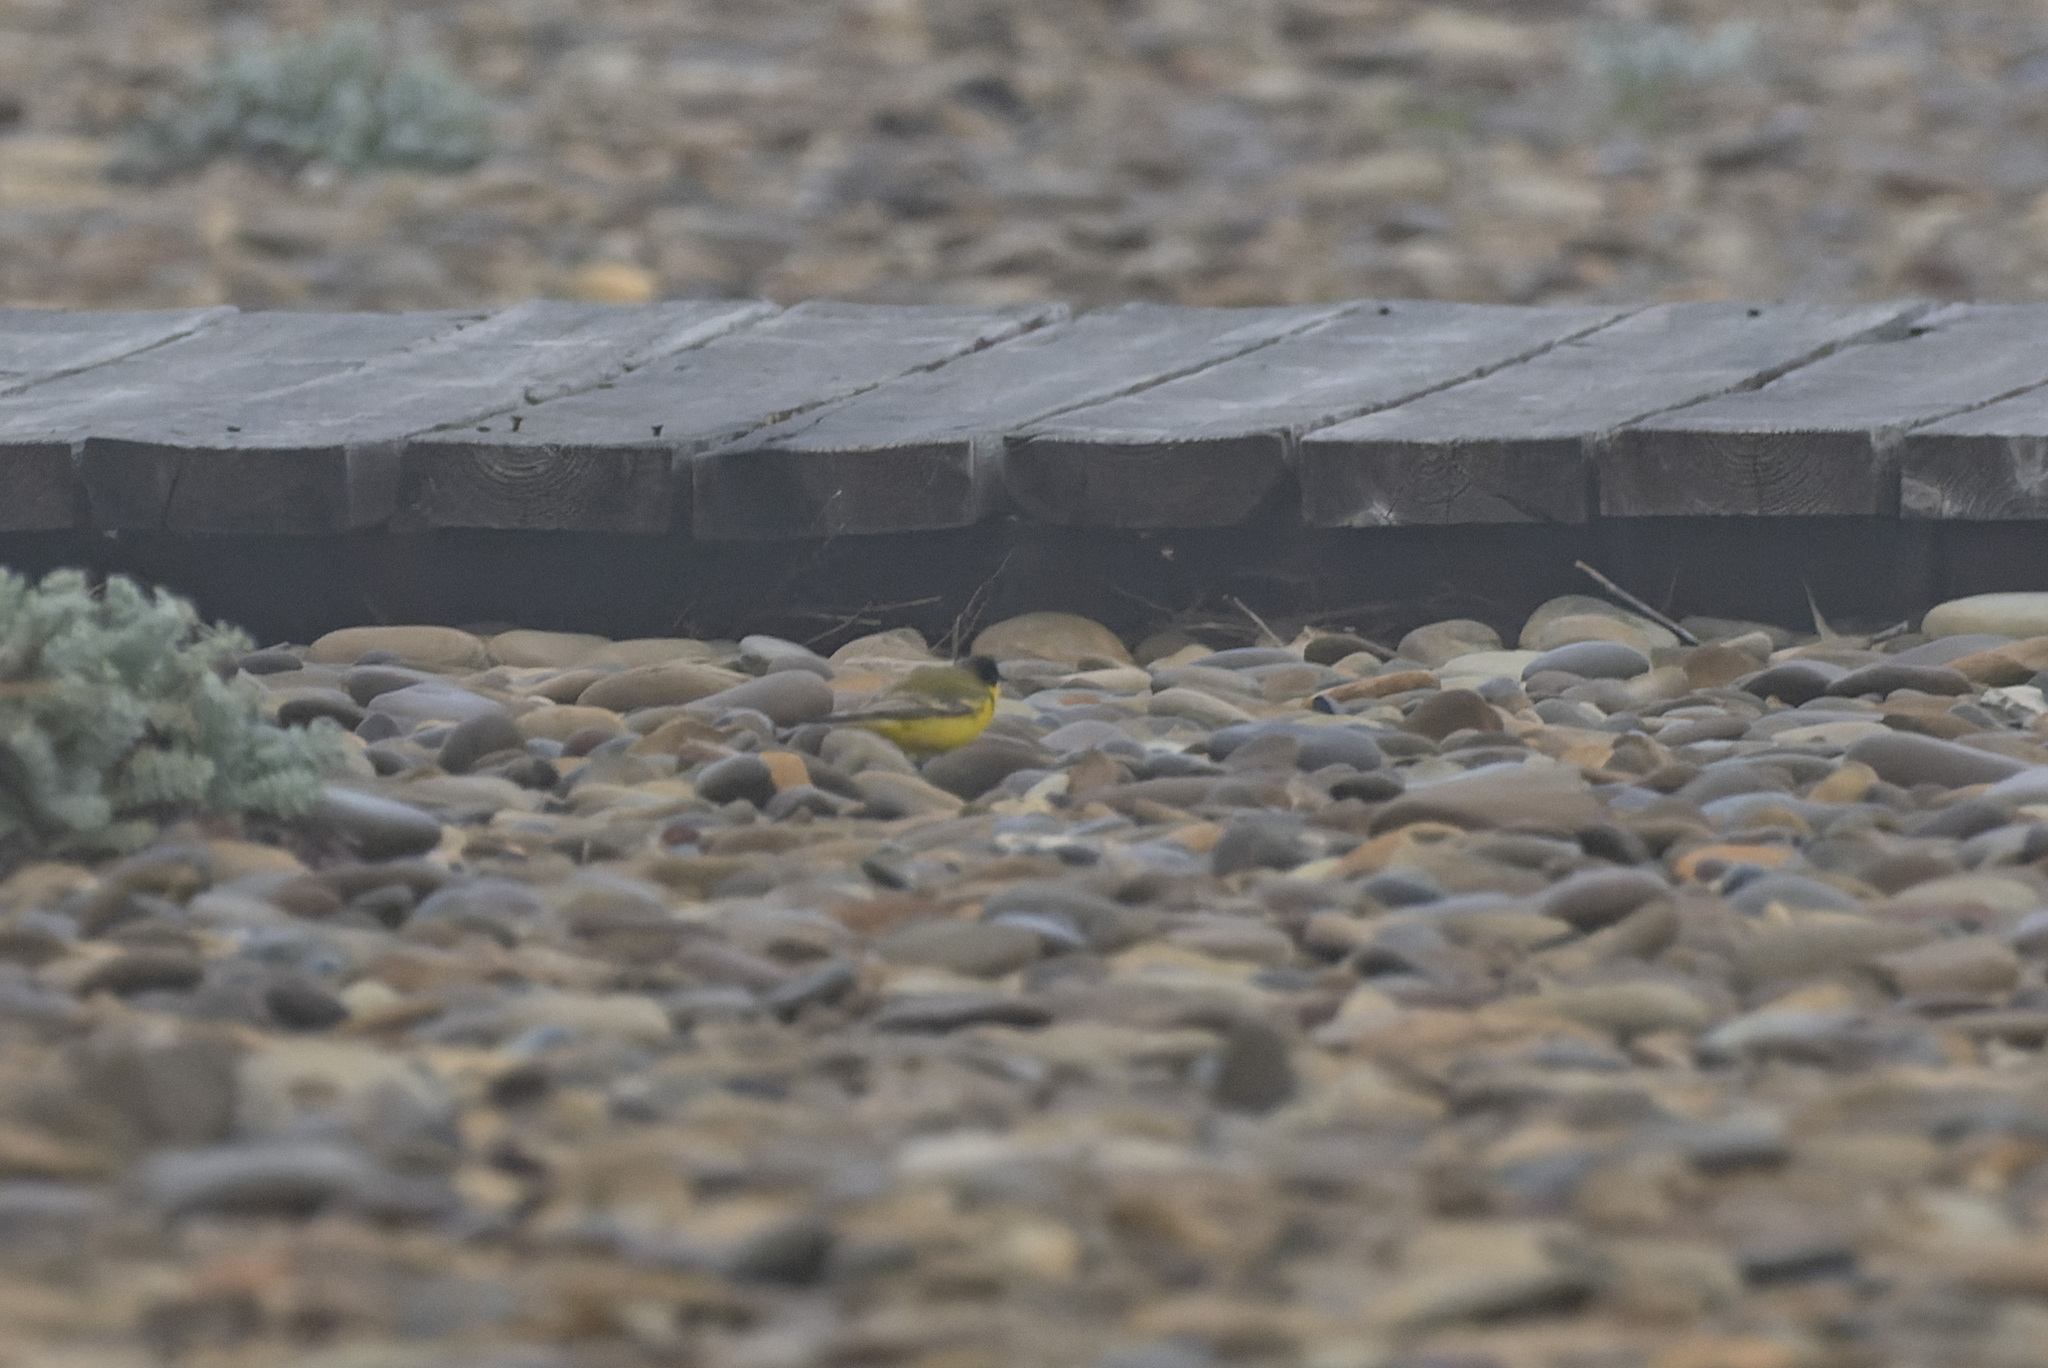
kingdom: Animalia
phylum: Chordata
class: Aves
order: Passeriformes
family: Motacillidae
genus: Motacilla
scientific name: Motacilla flava
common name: Western yellow wagtail
